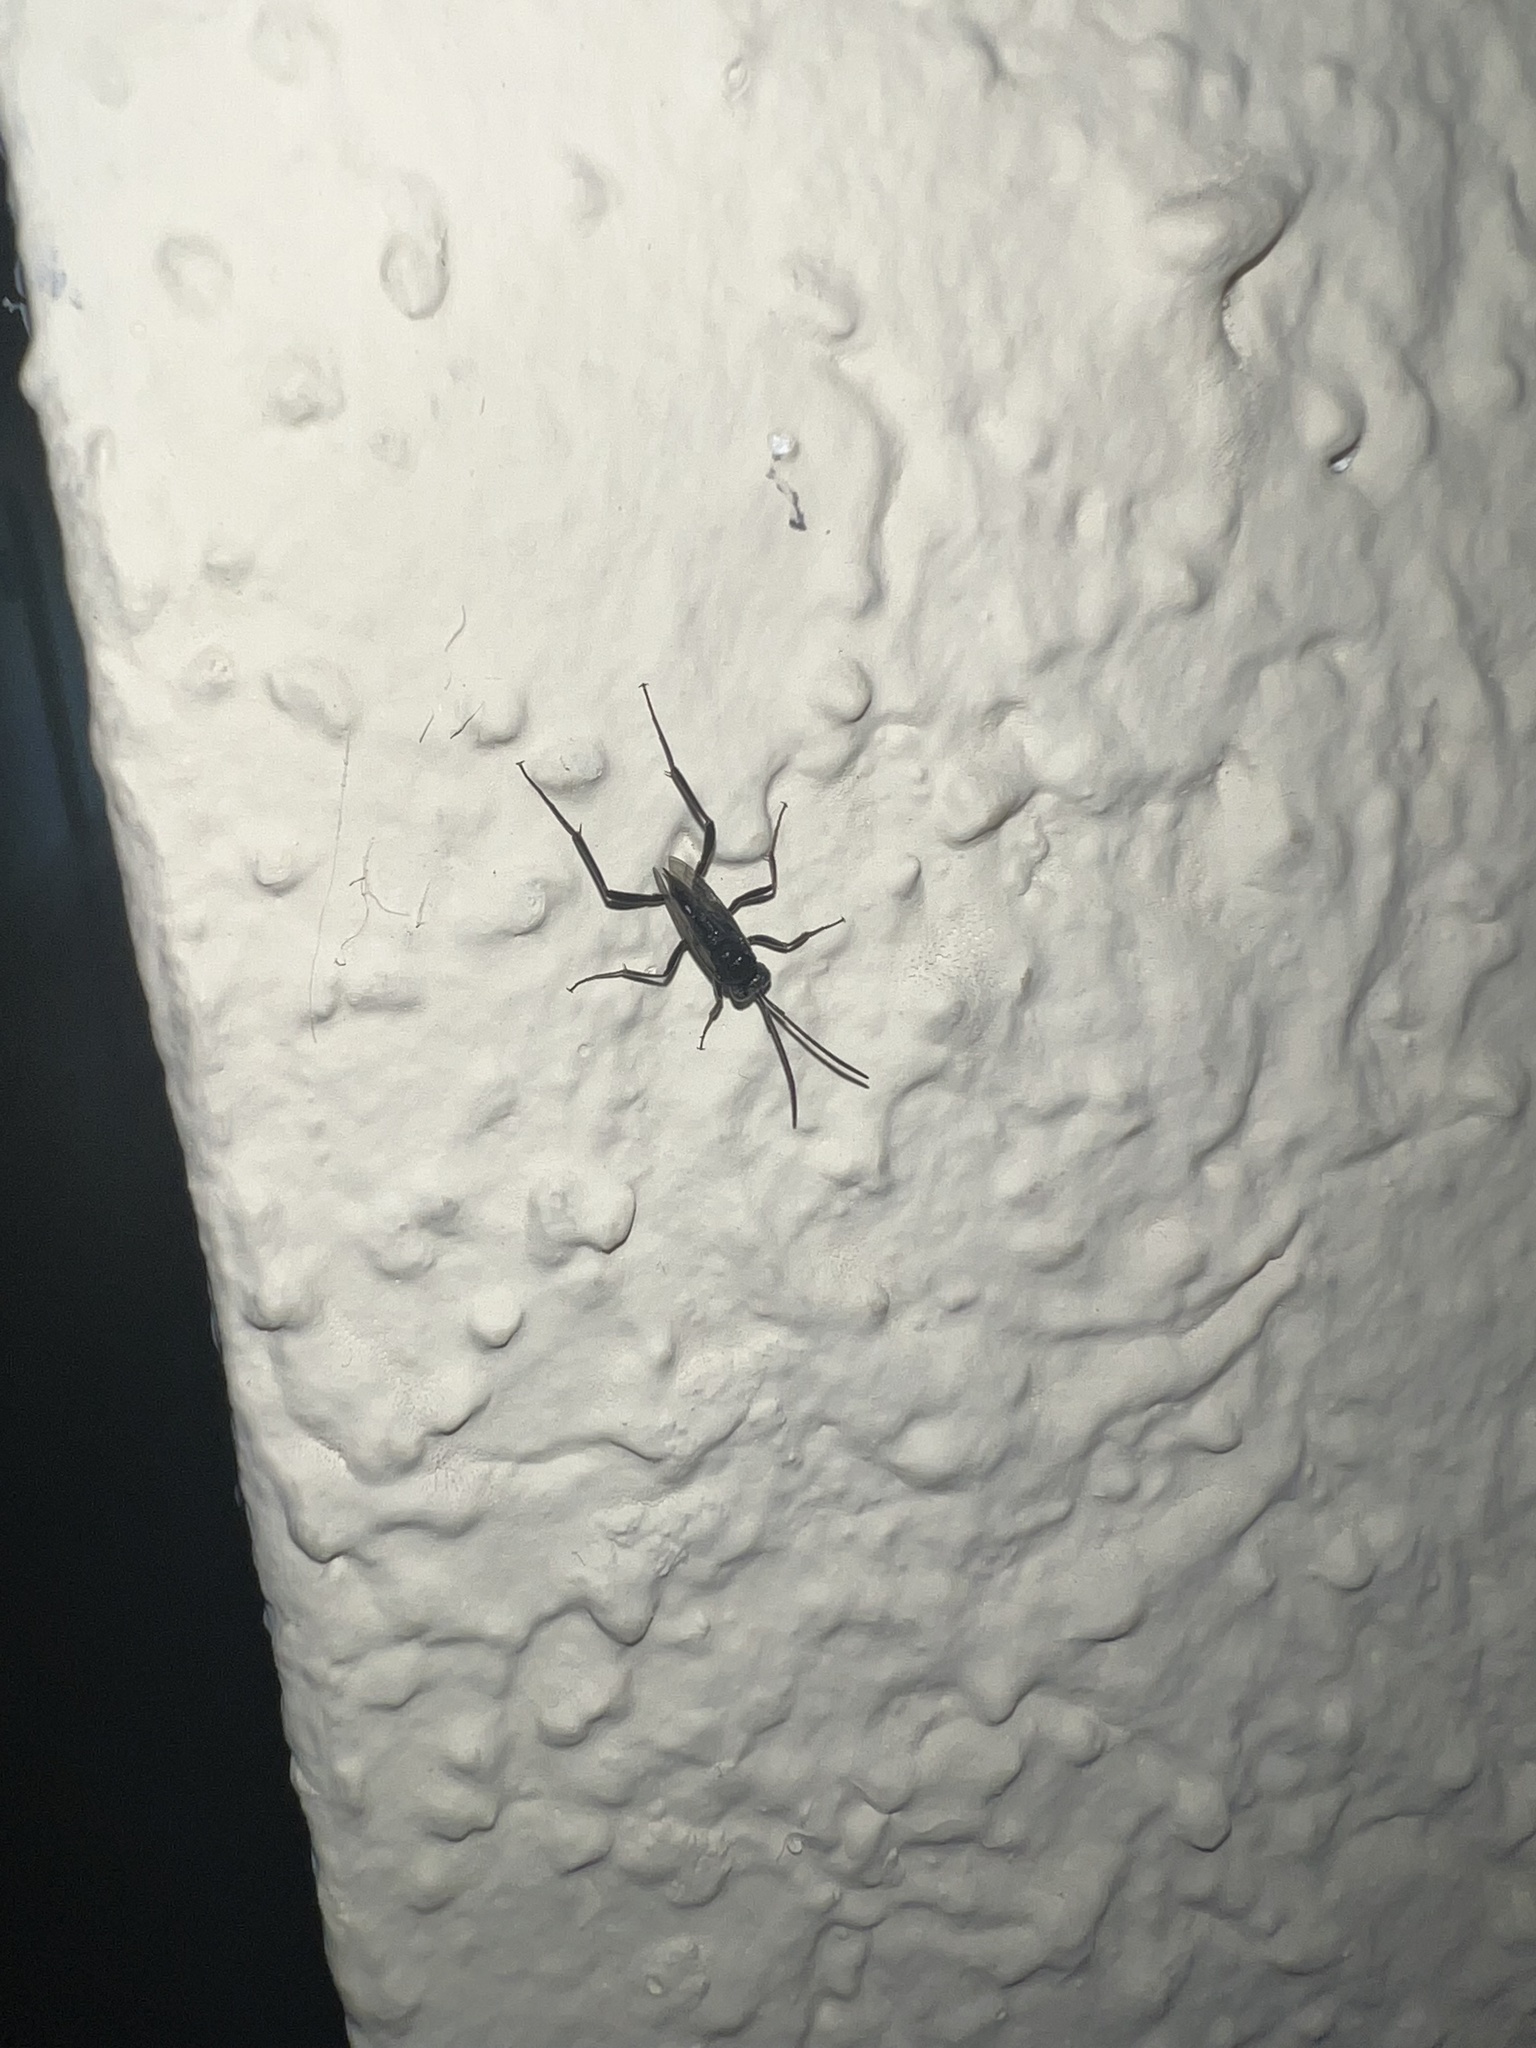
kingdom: Animalia
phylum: Arthropoda
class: Insecta
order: Hymenoptera
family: Evaniidae
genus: Evania
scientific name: Evania appendigaster
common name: Ensign wasp
